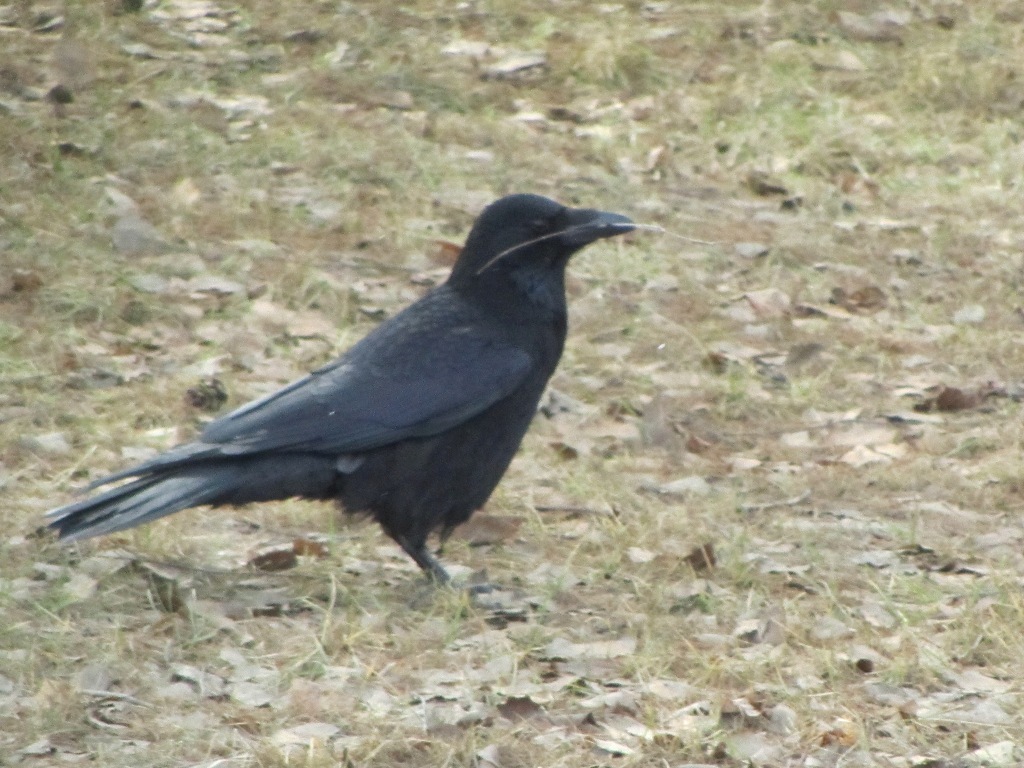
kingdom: Animalia
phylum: Chordata
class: Aves
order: Passeriformes
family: Corvidae
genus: Corvus
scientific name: Corvus corone
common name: Carrion crow
